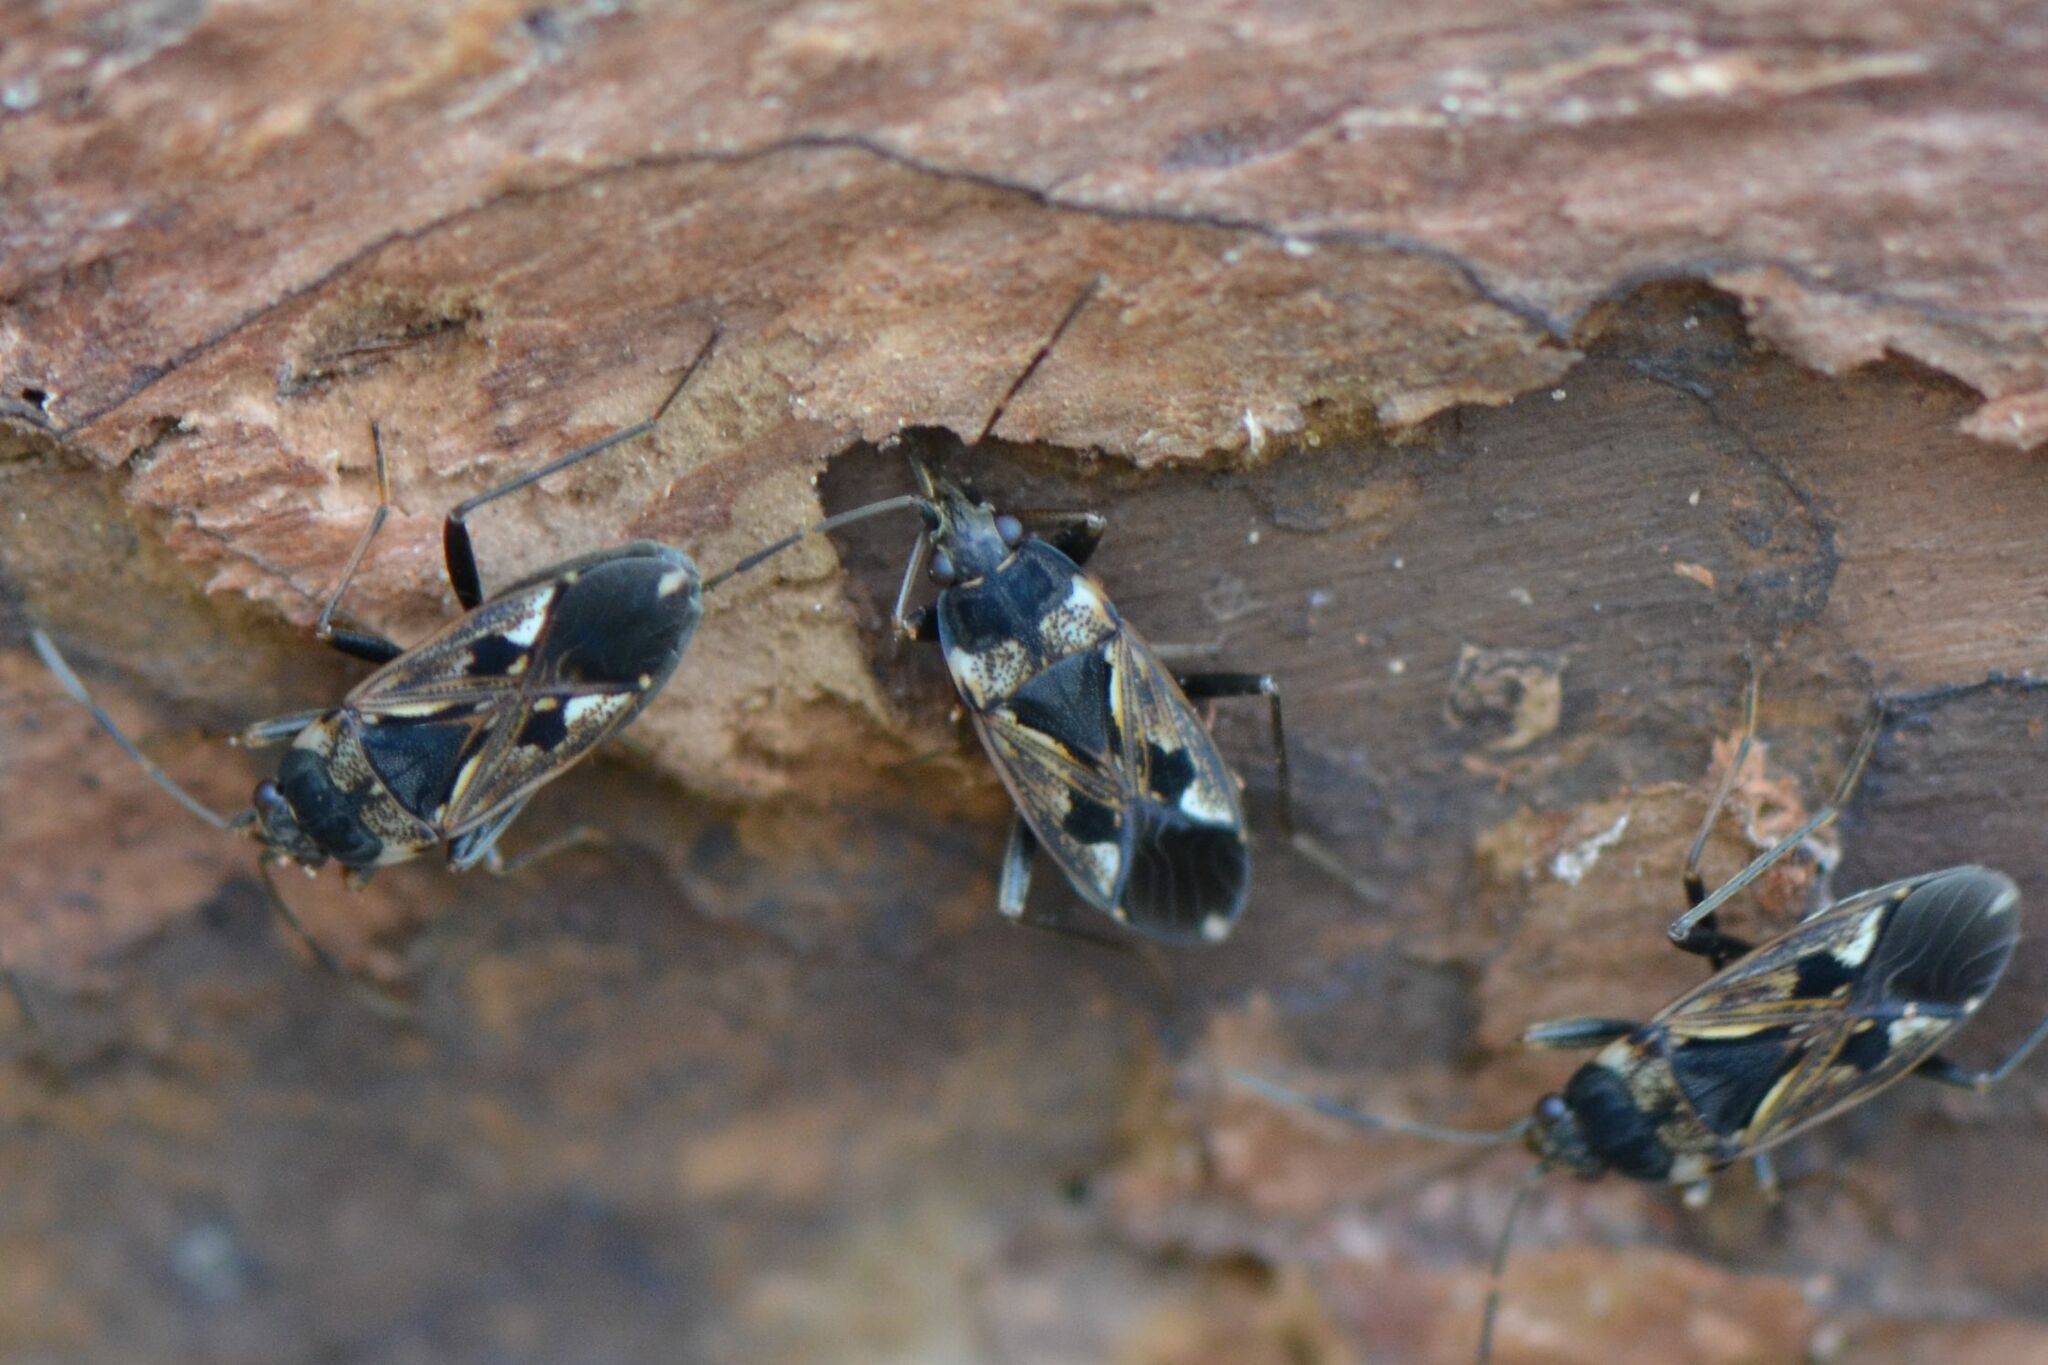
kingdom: Animalia
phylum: Arthropoda
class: Insecta
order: Hemiptera
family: Rhyparochromidae
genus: Rhyparochromus
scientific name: Rhyparochromus vulgaris
